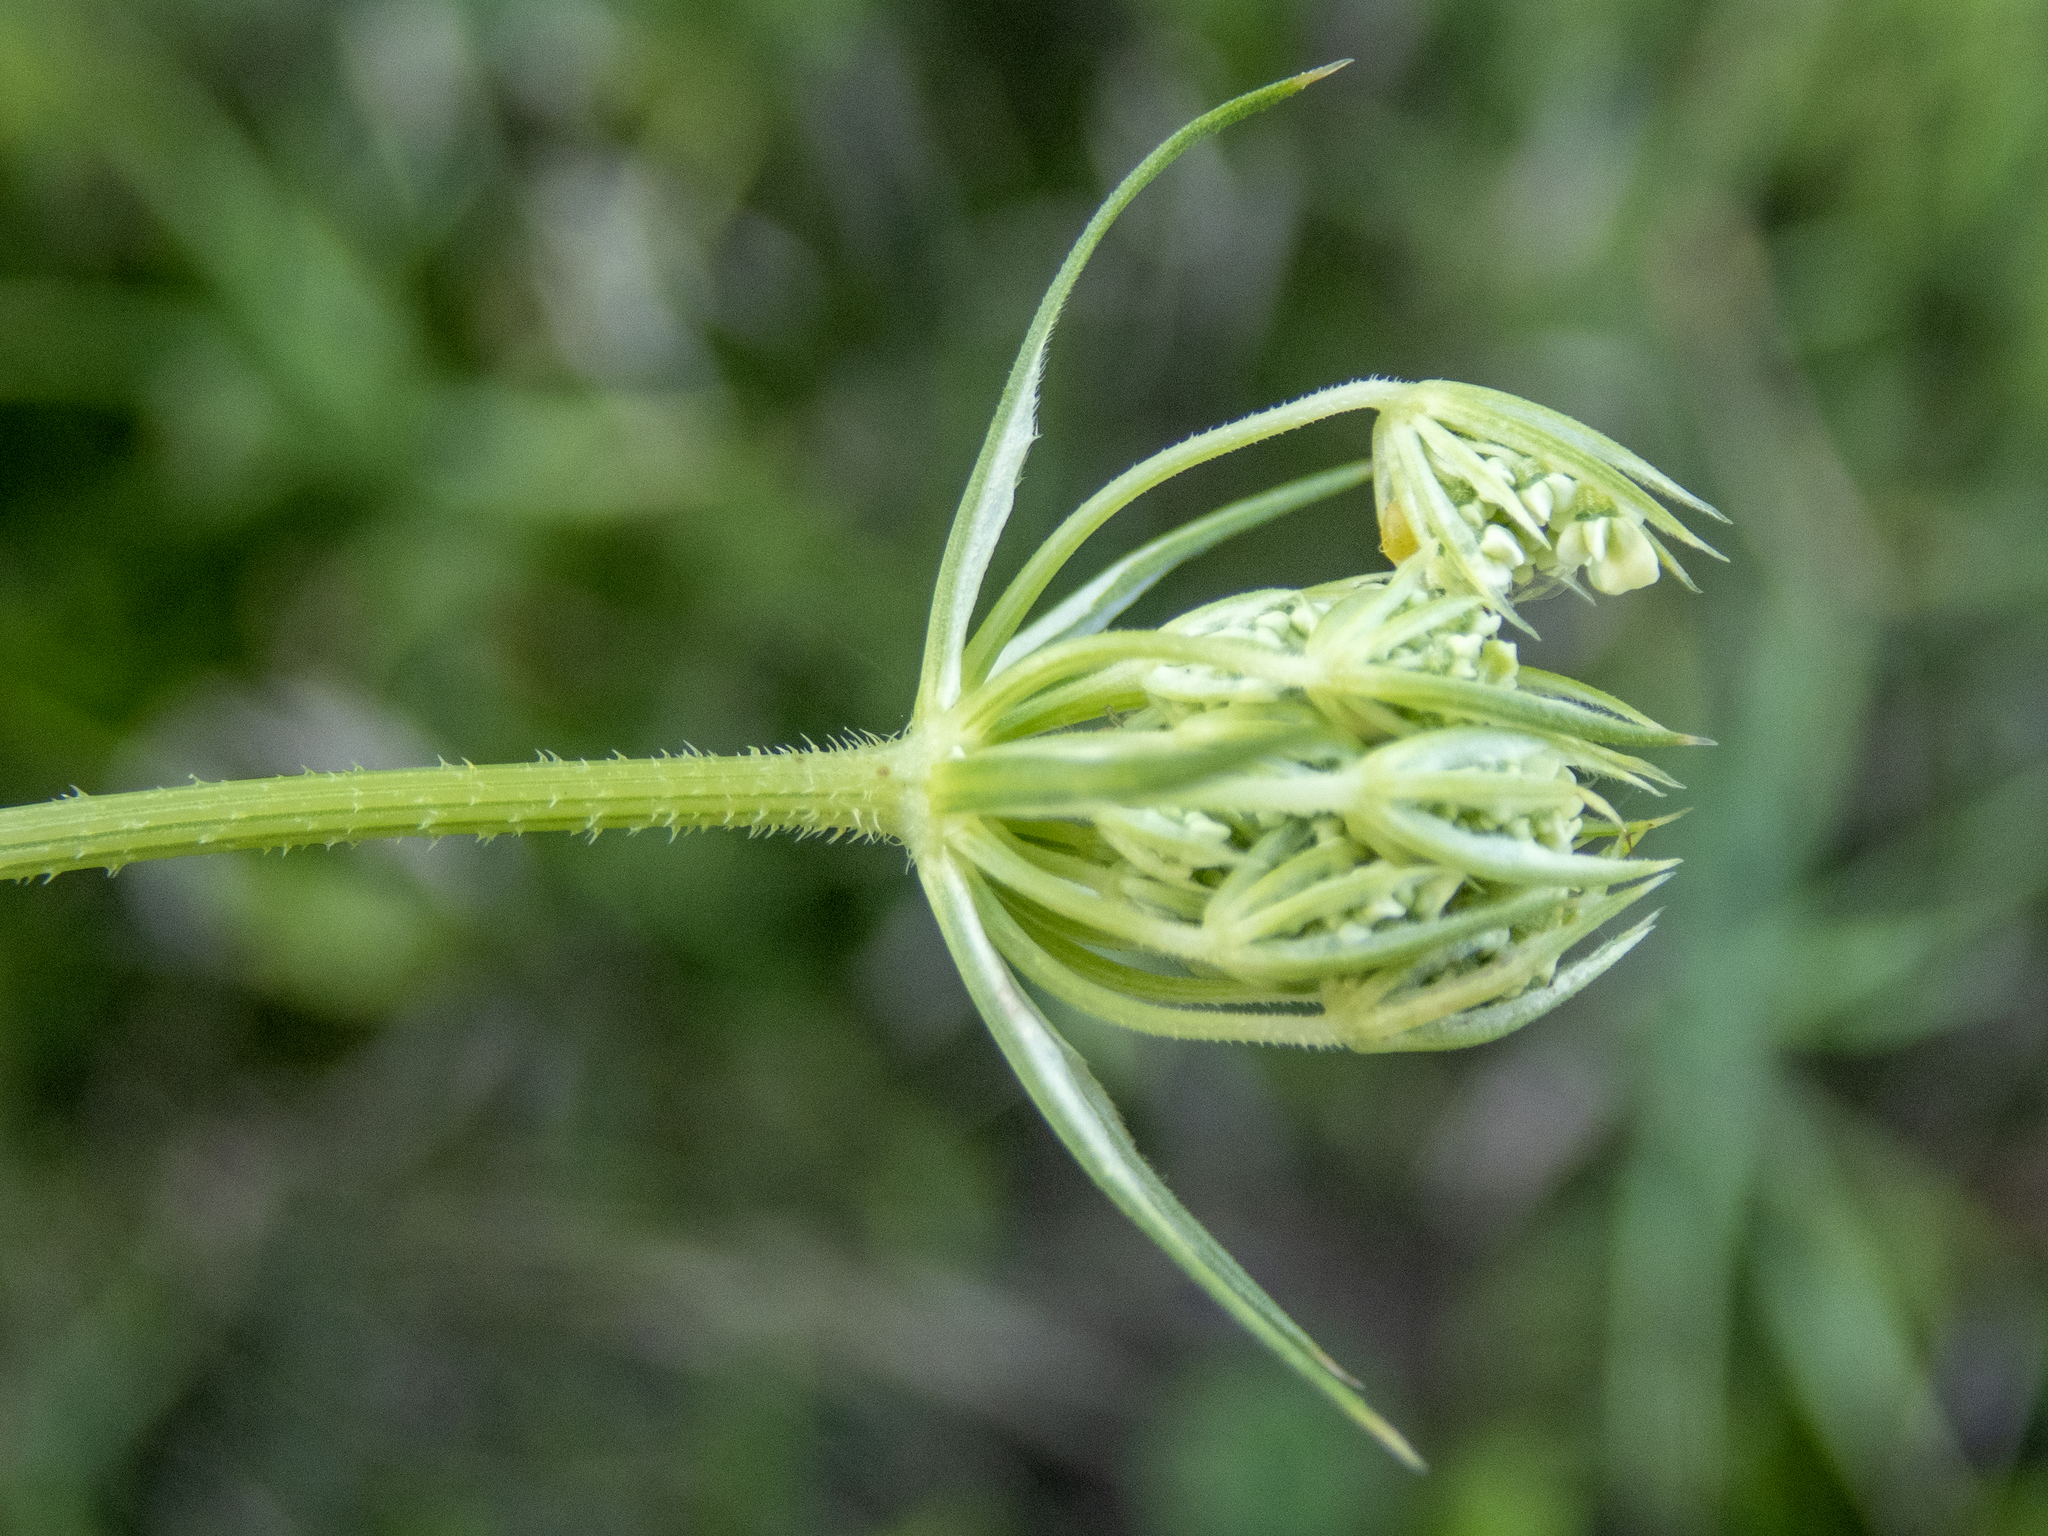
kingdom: Plantae
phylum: Tracheophyta
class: Magnoliopsida
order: Apiales
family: Apiaceae
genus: Daucus
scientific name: Daucus carota
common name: Wild carrot
